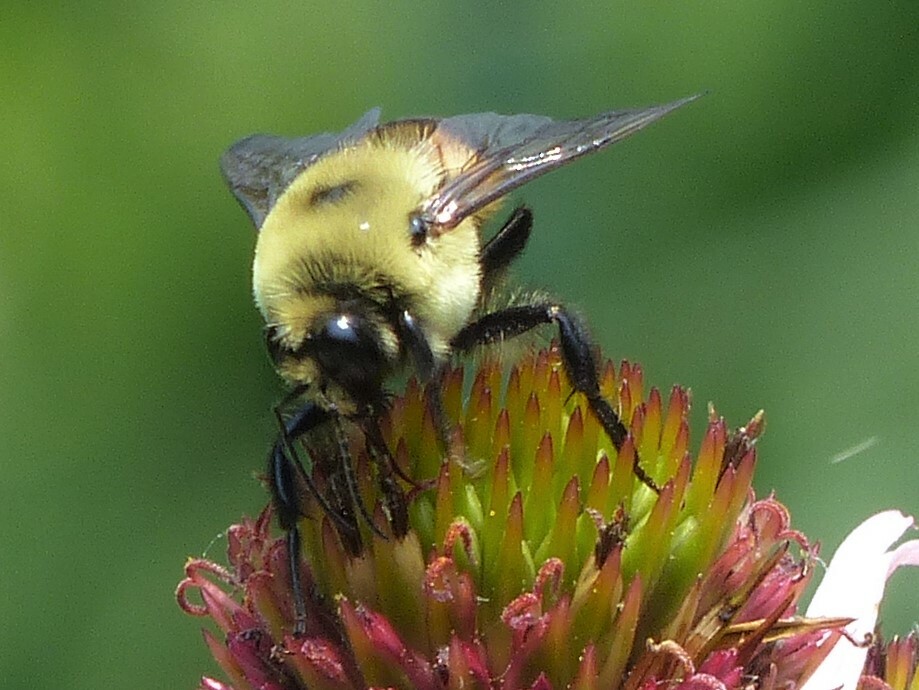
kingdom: Animalia
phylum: Arthropoda
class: Insecta
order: Hymenoptera
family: Apidae
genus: Bombus
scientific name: Bombus griseocollis
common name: Brown-belted bumble bee
